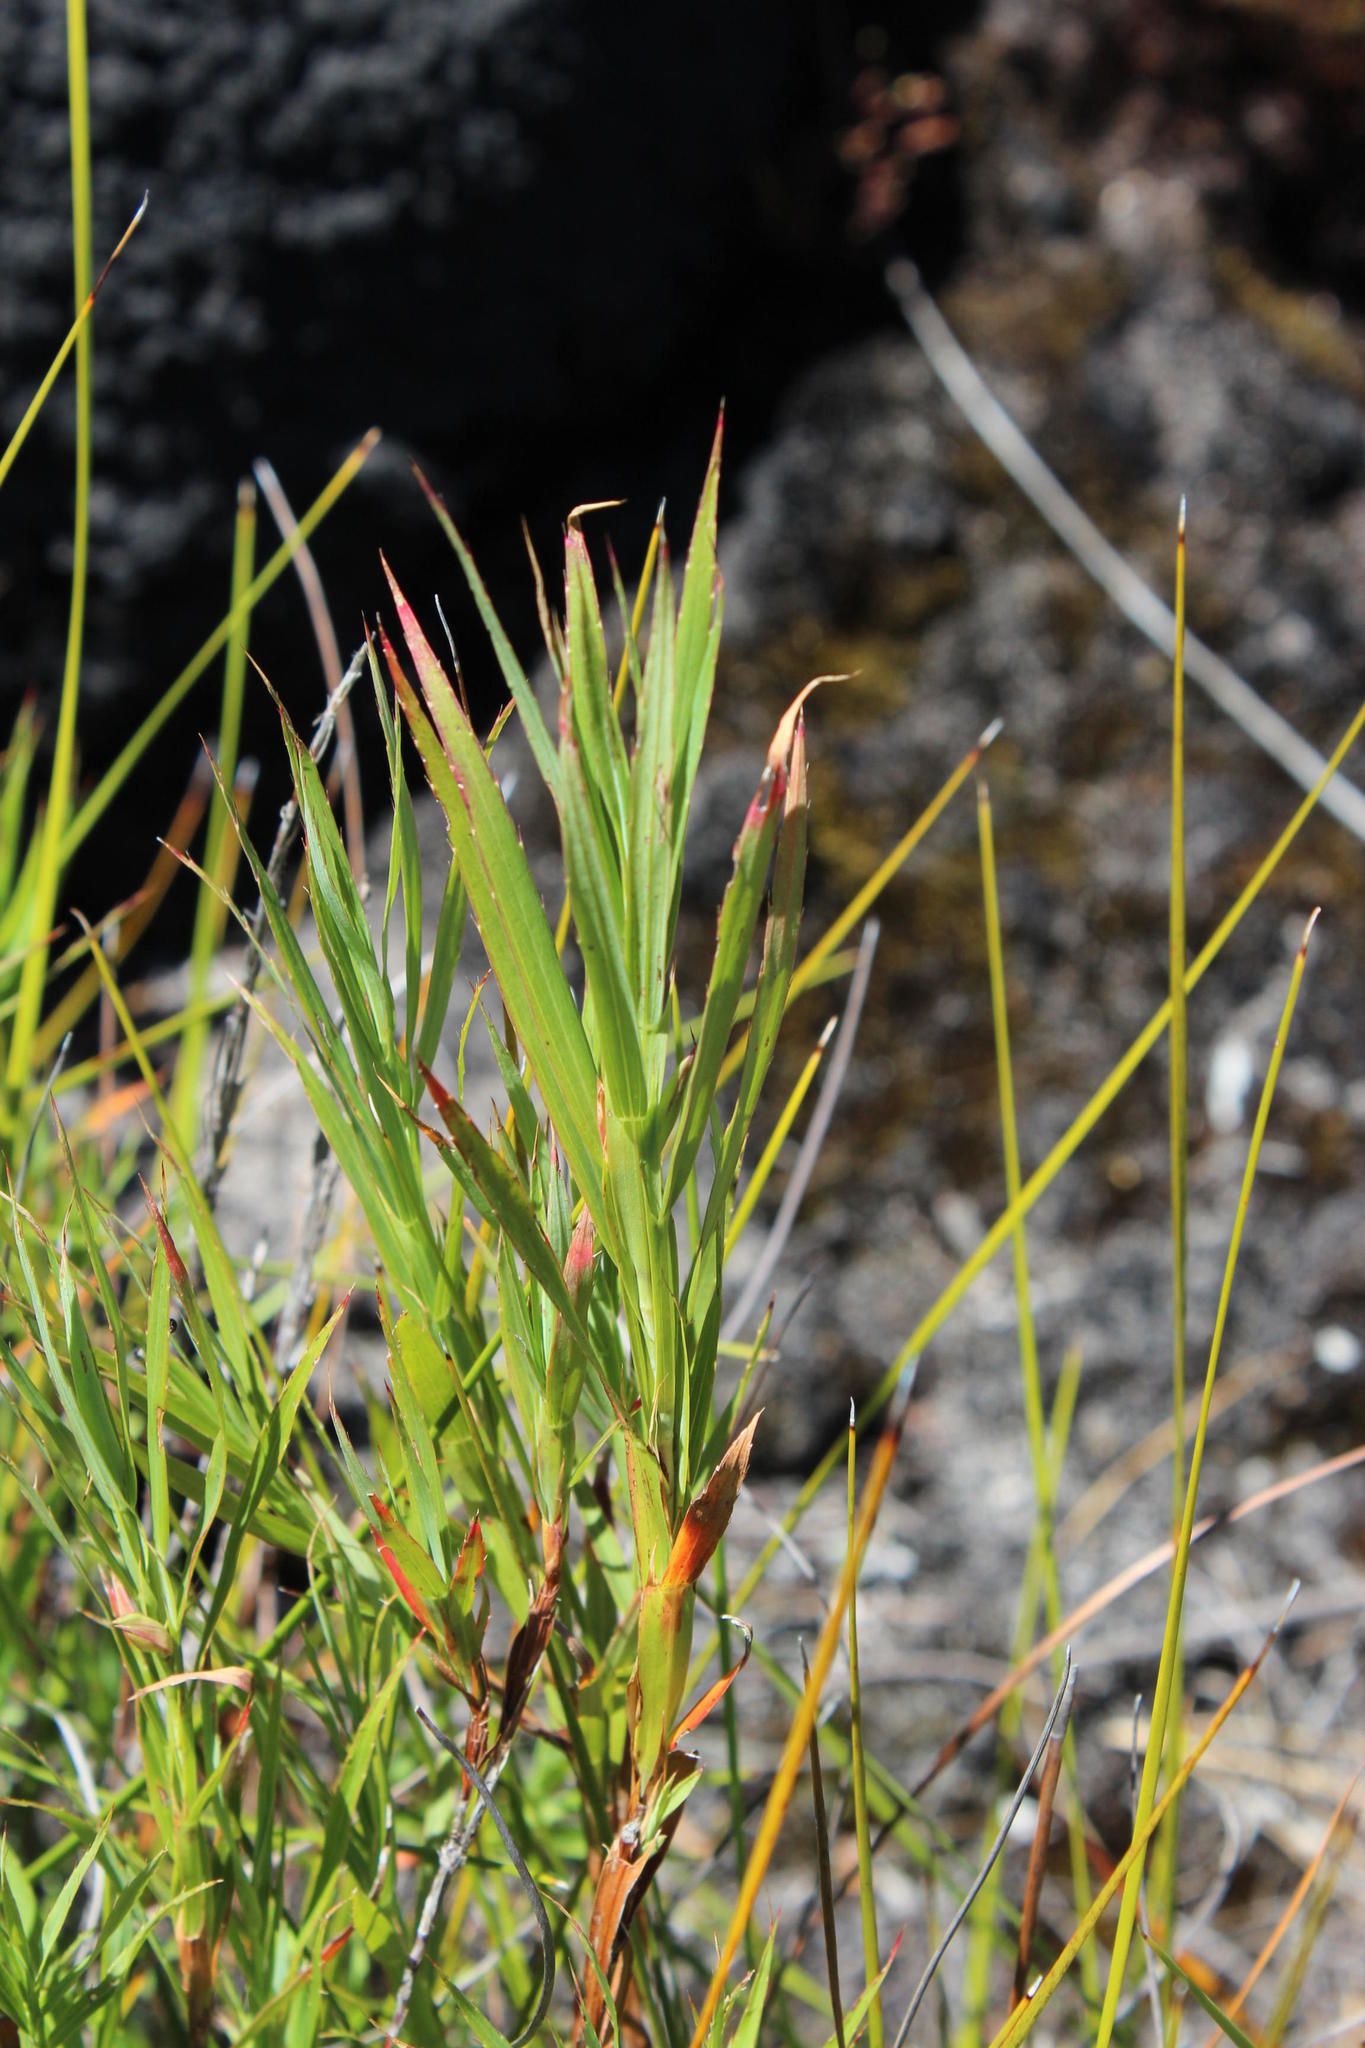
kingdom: Plantae
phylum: Tracheophyta
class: Magnoliopsida
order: Rosales
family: Rosaceae
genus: Cliffortia
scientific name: Cliffortia graminea
